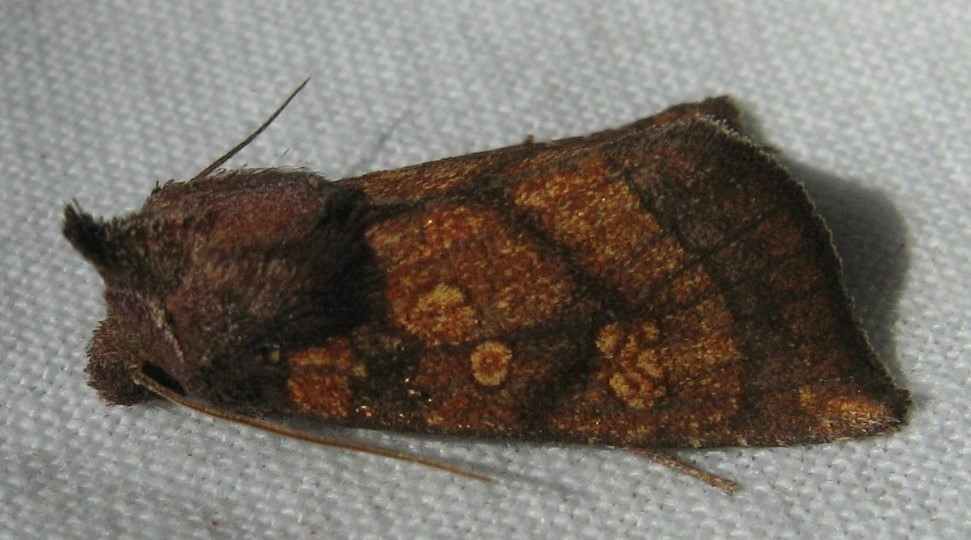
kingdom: Animalia
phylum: Arthropoda
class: Insecta
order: Lepidoptera
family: Noctuidae
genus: Papaipema
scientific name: Papaipema impecuniosa
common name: Aster borer moth
